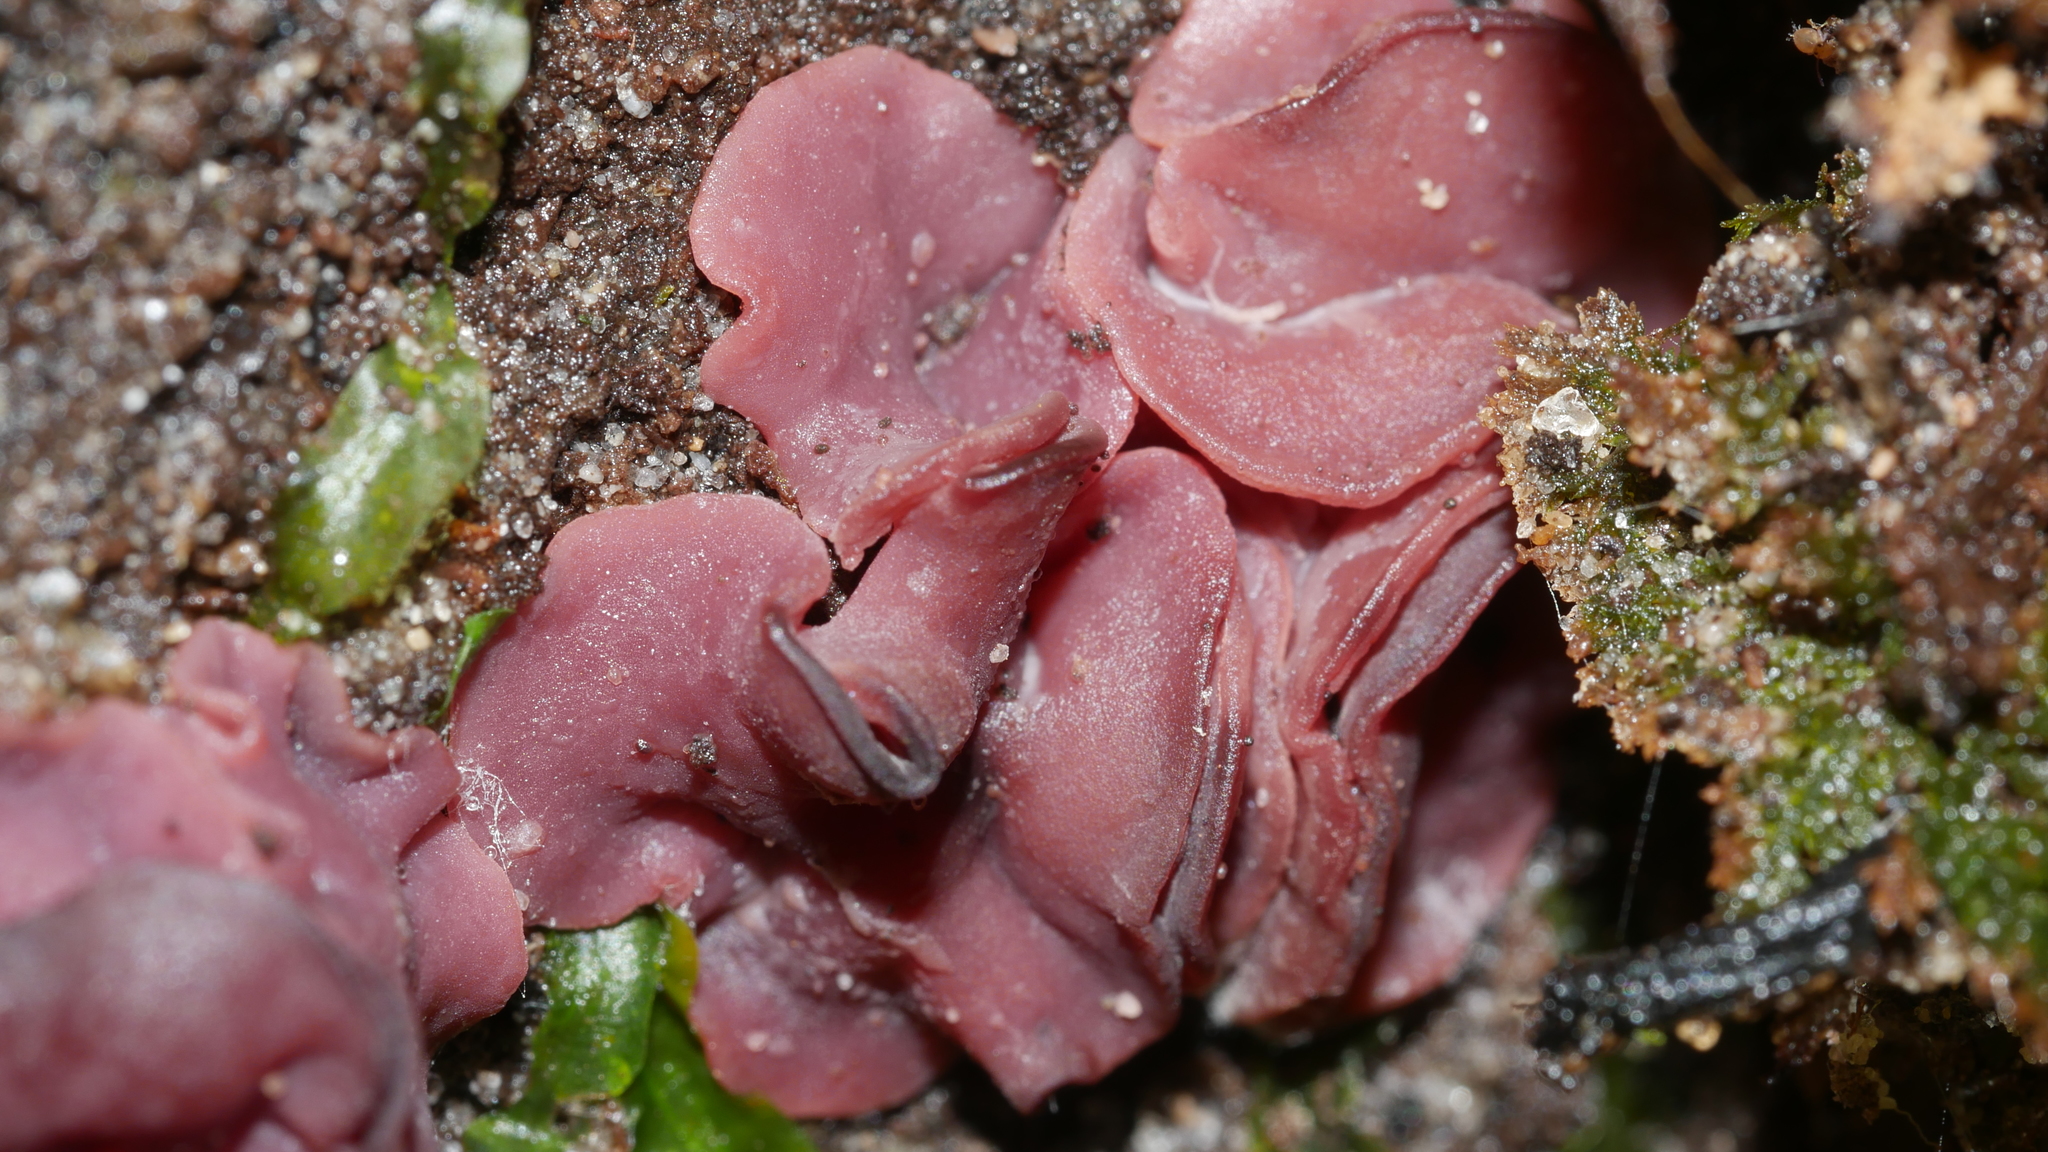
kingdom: Fungi
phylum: Ascomycota
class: Leotiomycetes
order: Helotiales
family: Gelatinodiscaceae
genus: Ascocoryne
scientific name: Ascocoryne sarcoides
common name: Purple jellydisc
